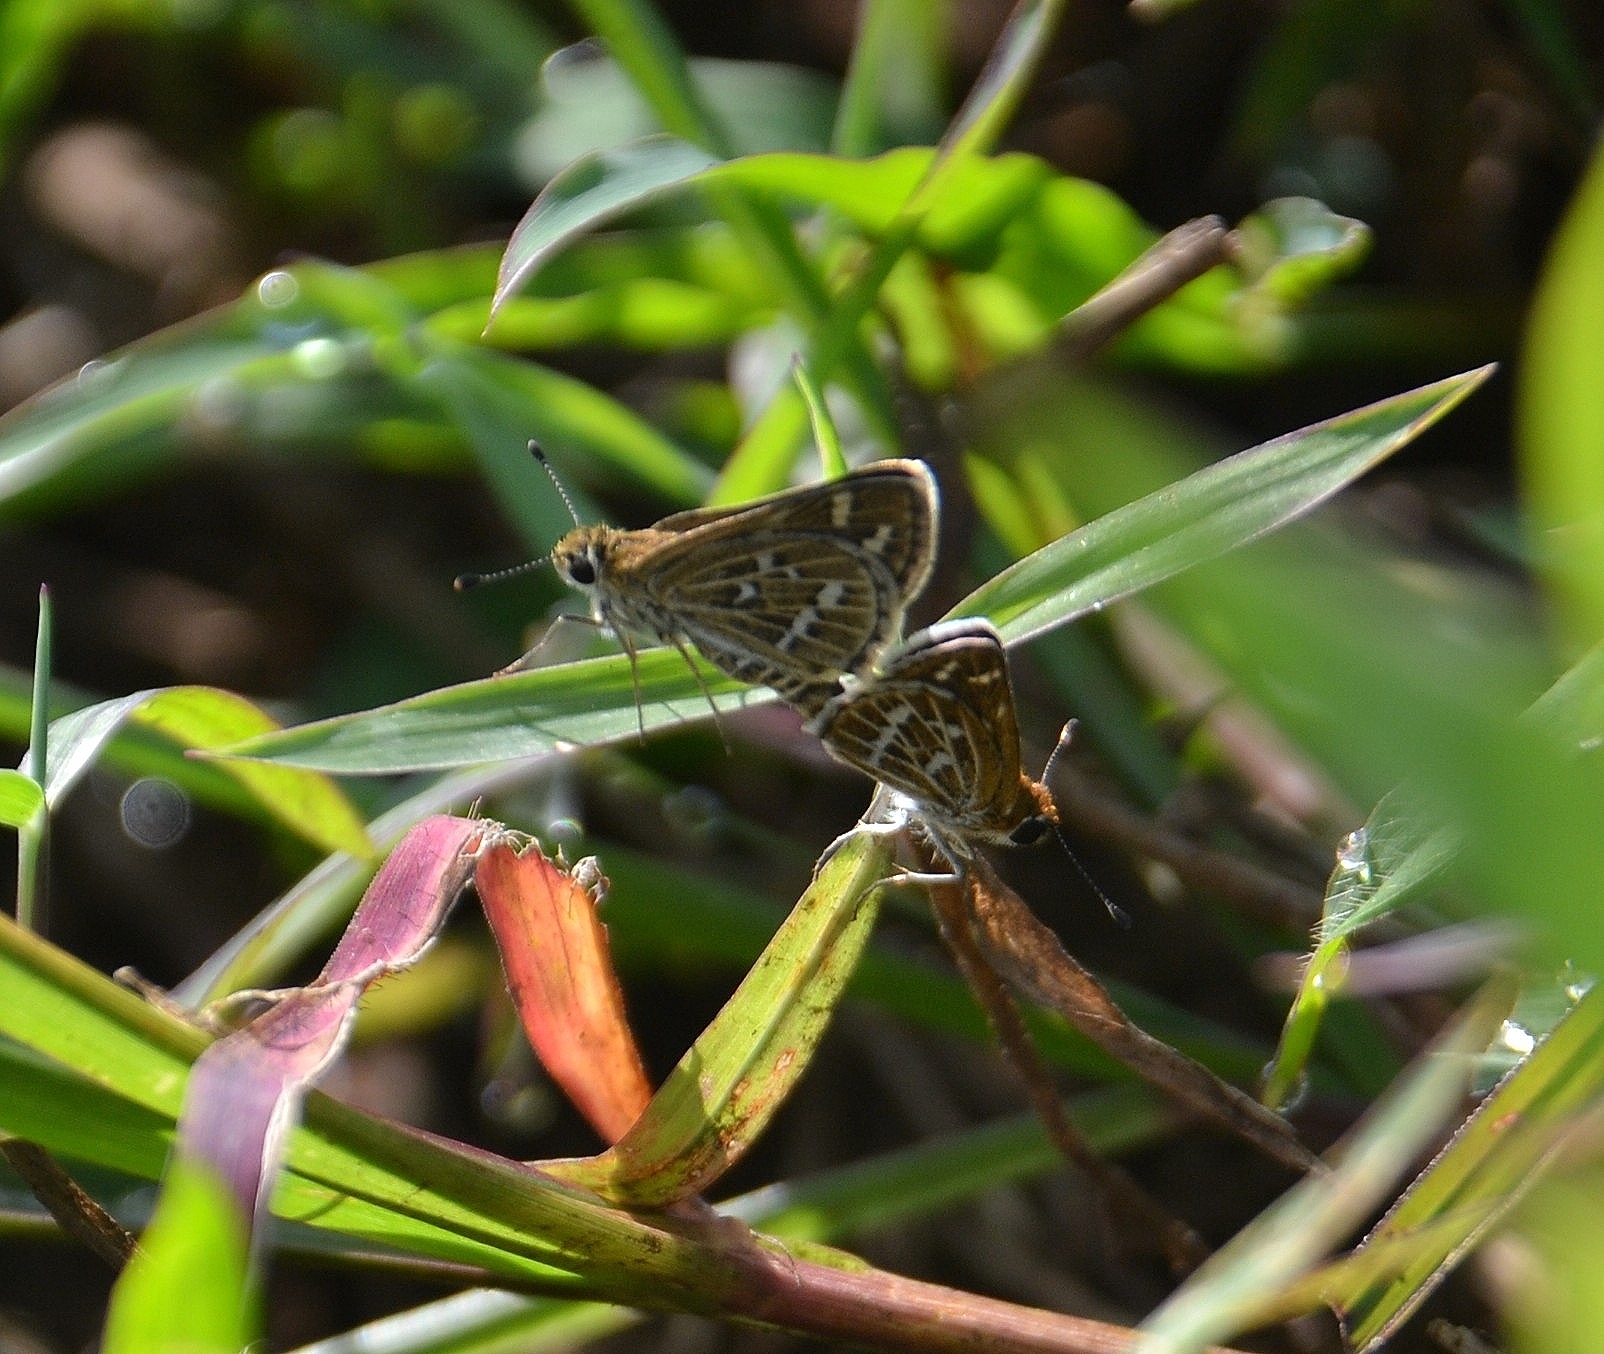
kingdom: Animalia
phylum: Arthropoda
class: Insecta
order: Lepidoptera
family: Hesperiidae
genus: Taractrocera
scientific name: Taractrocera maevius
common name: Common grass-dart
